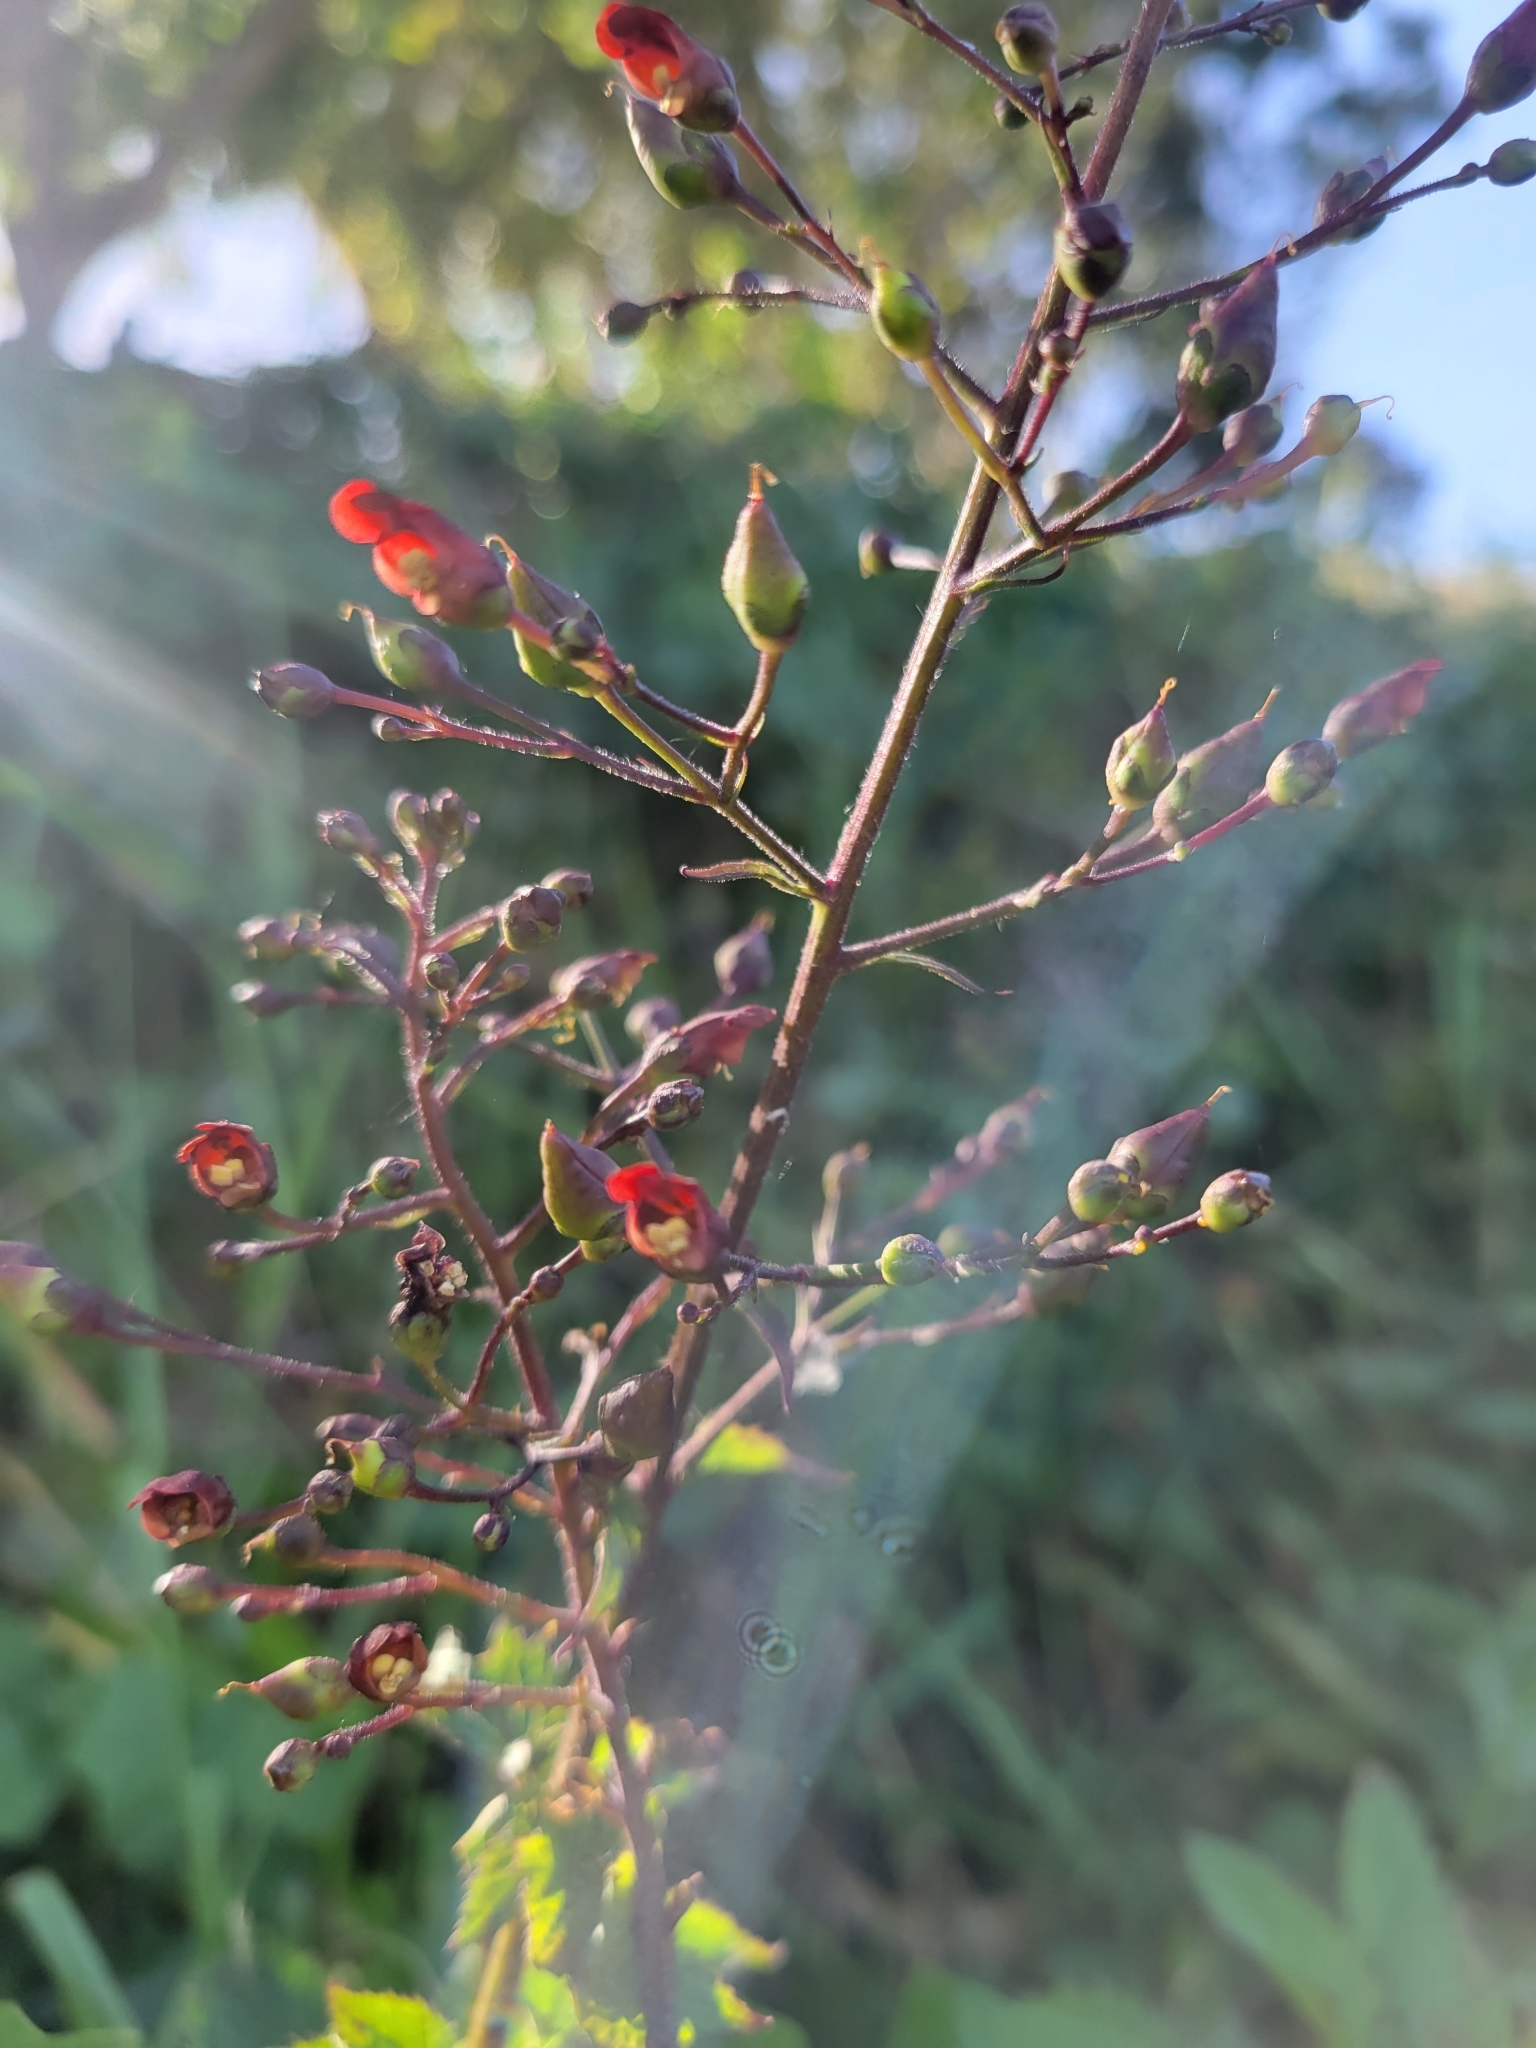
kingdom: Plantae
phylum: Tracheophyta
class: Magnoliopsida
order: Lamiales
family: Scrophulariaceae
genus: Scrophularia
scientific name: Scrophularia californica
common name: California figwort
